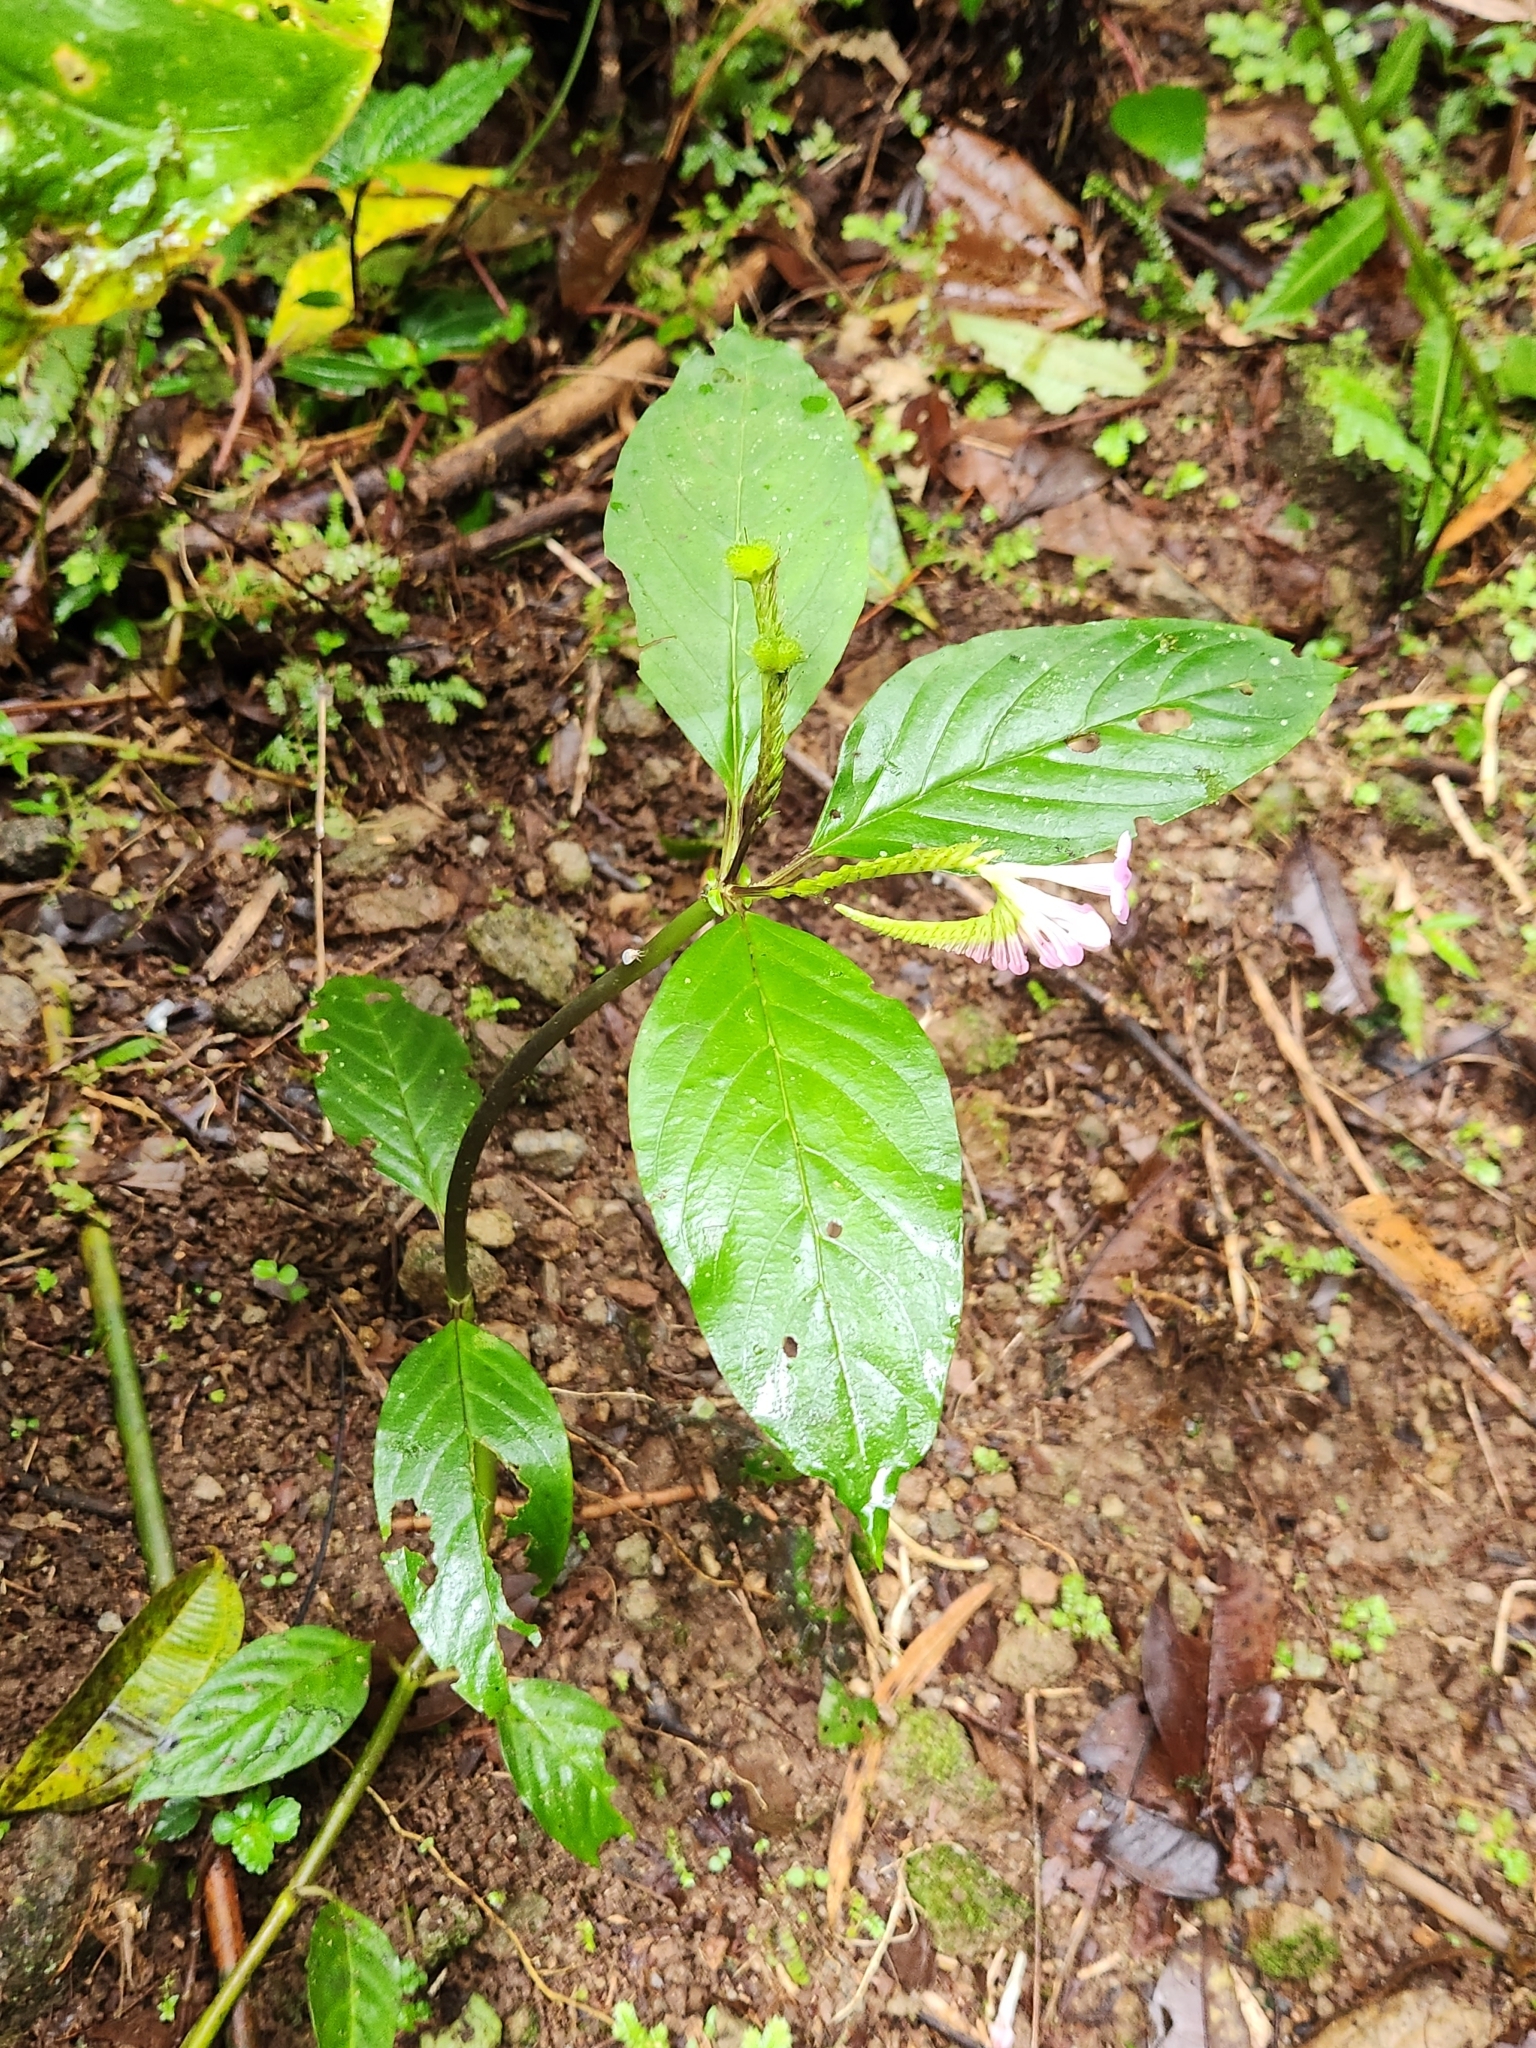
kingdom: Plantae
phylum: Tracheophyta
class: Magnoliopsida
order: Gentianales
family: Loganiaceae
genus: Spigelia
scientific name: Spigelia hamellioides
